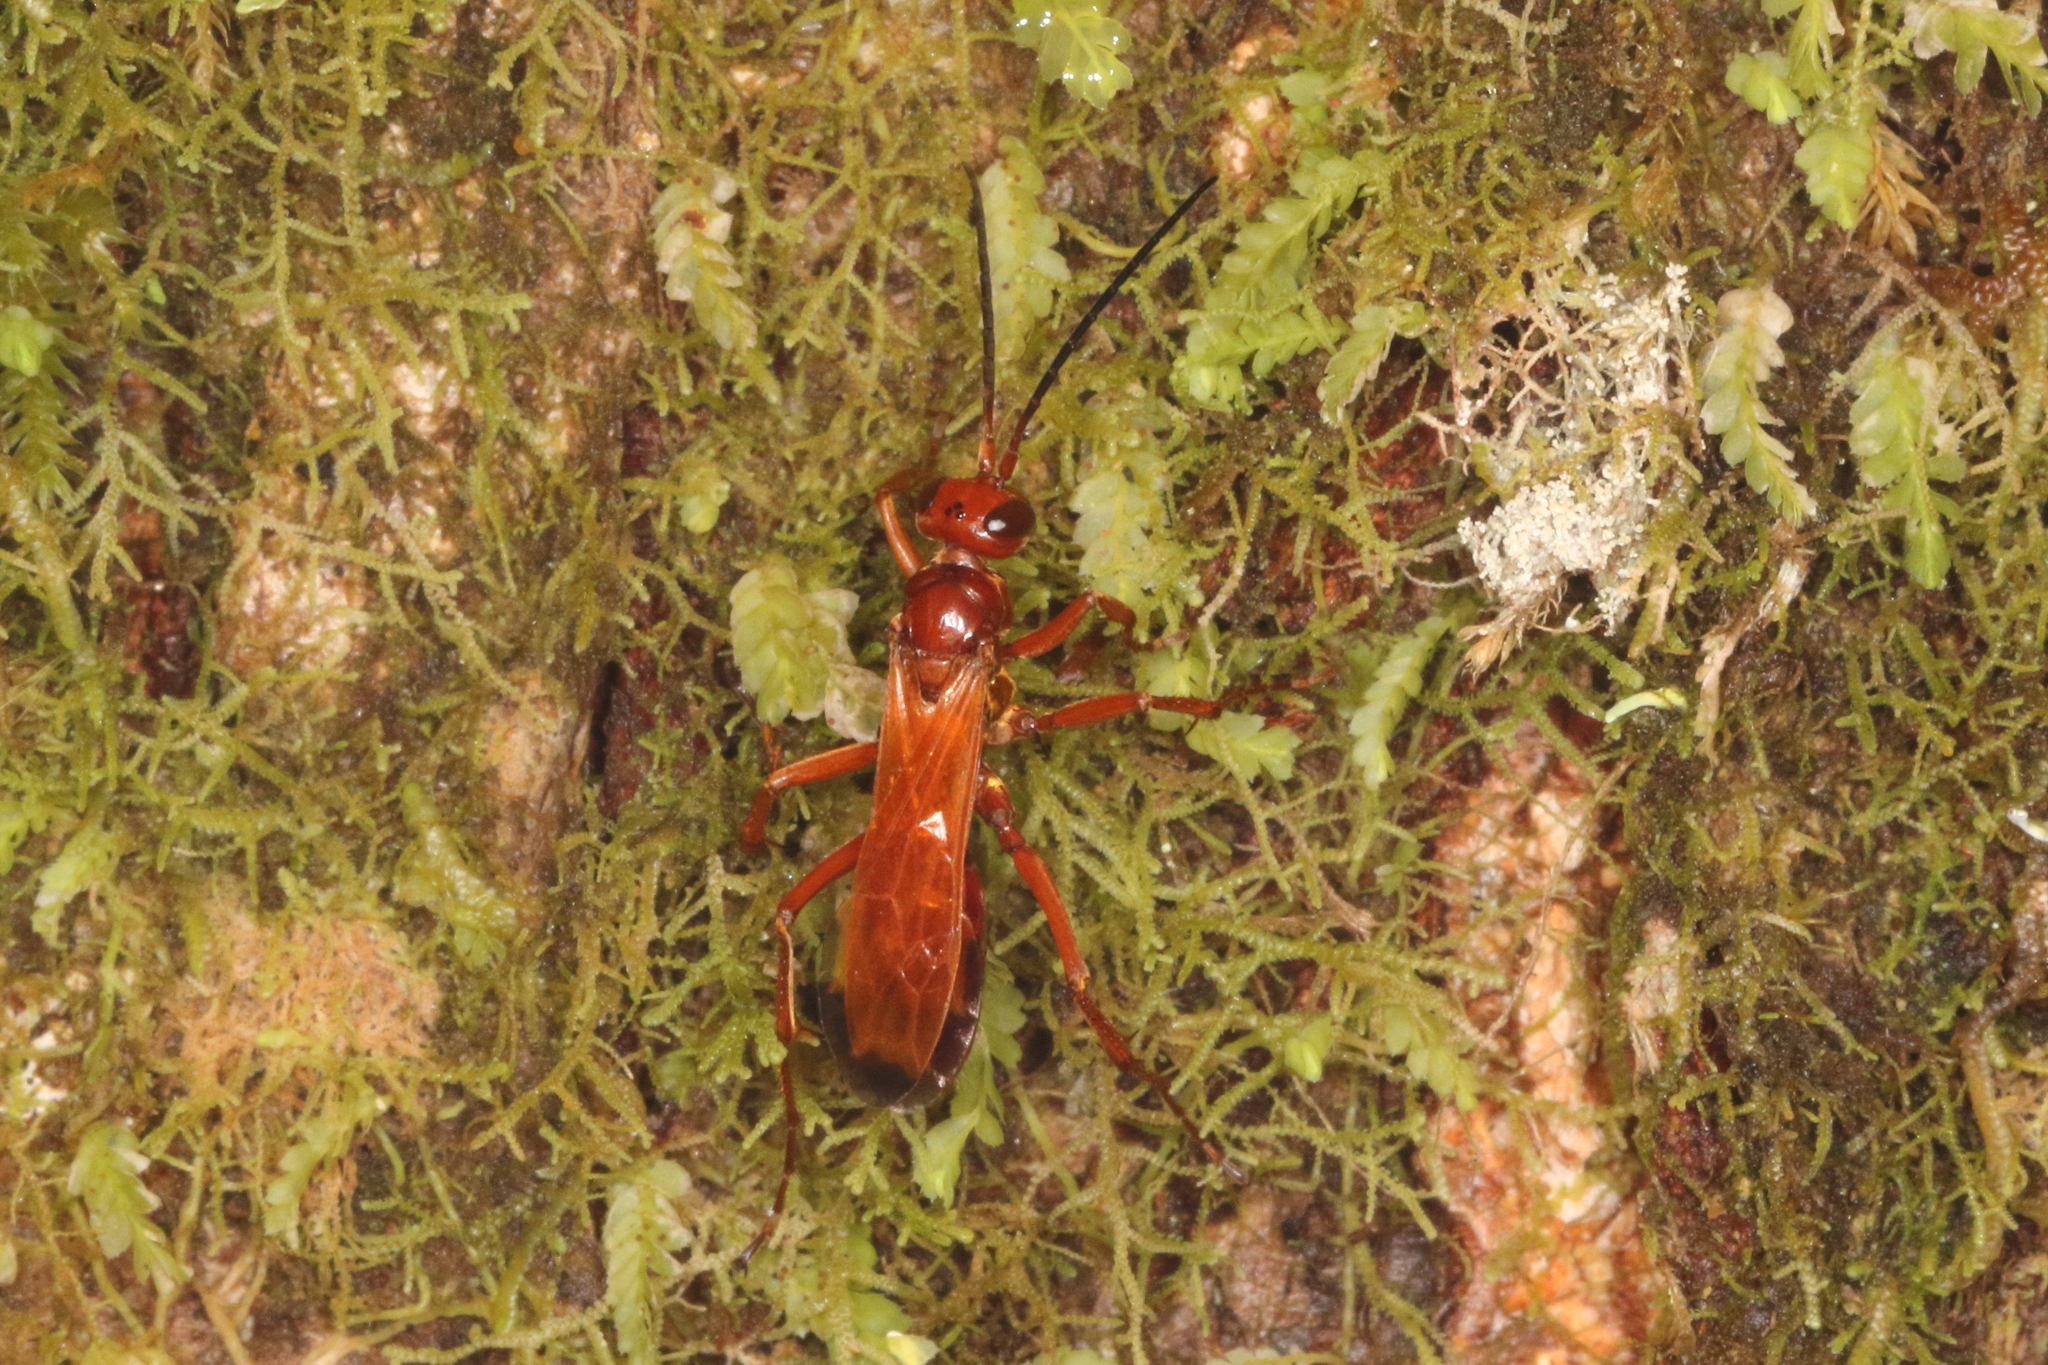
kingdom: Animalia
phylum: Arthropoda
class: Insecta
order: Hymenoptera
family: Pompilidae
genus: Sphictostethus
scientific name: Sphictostethus nitidus
